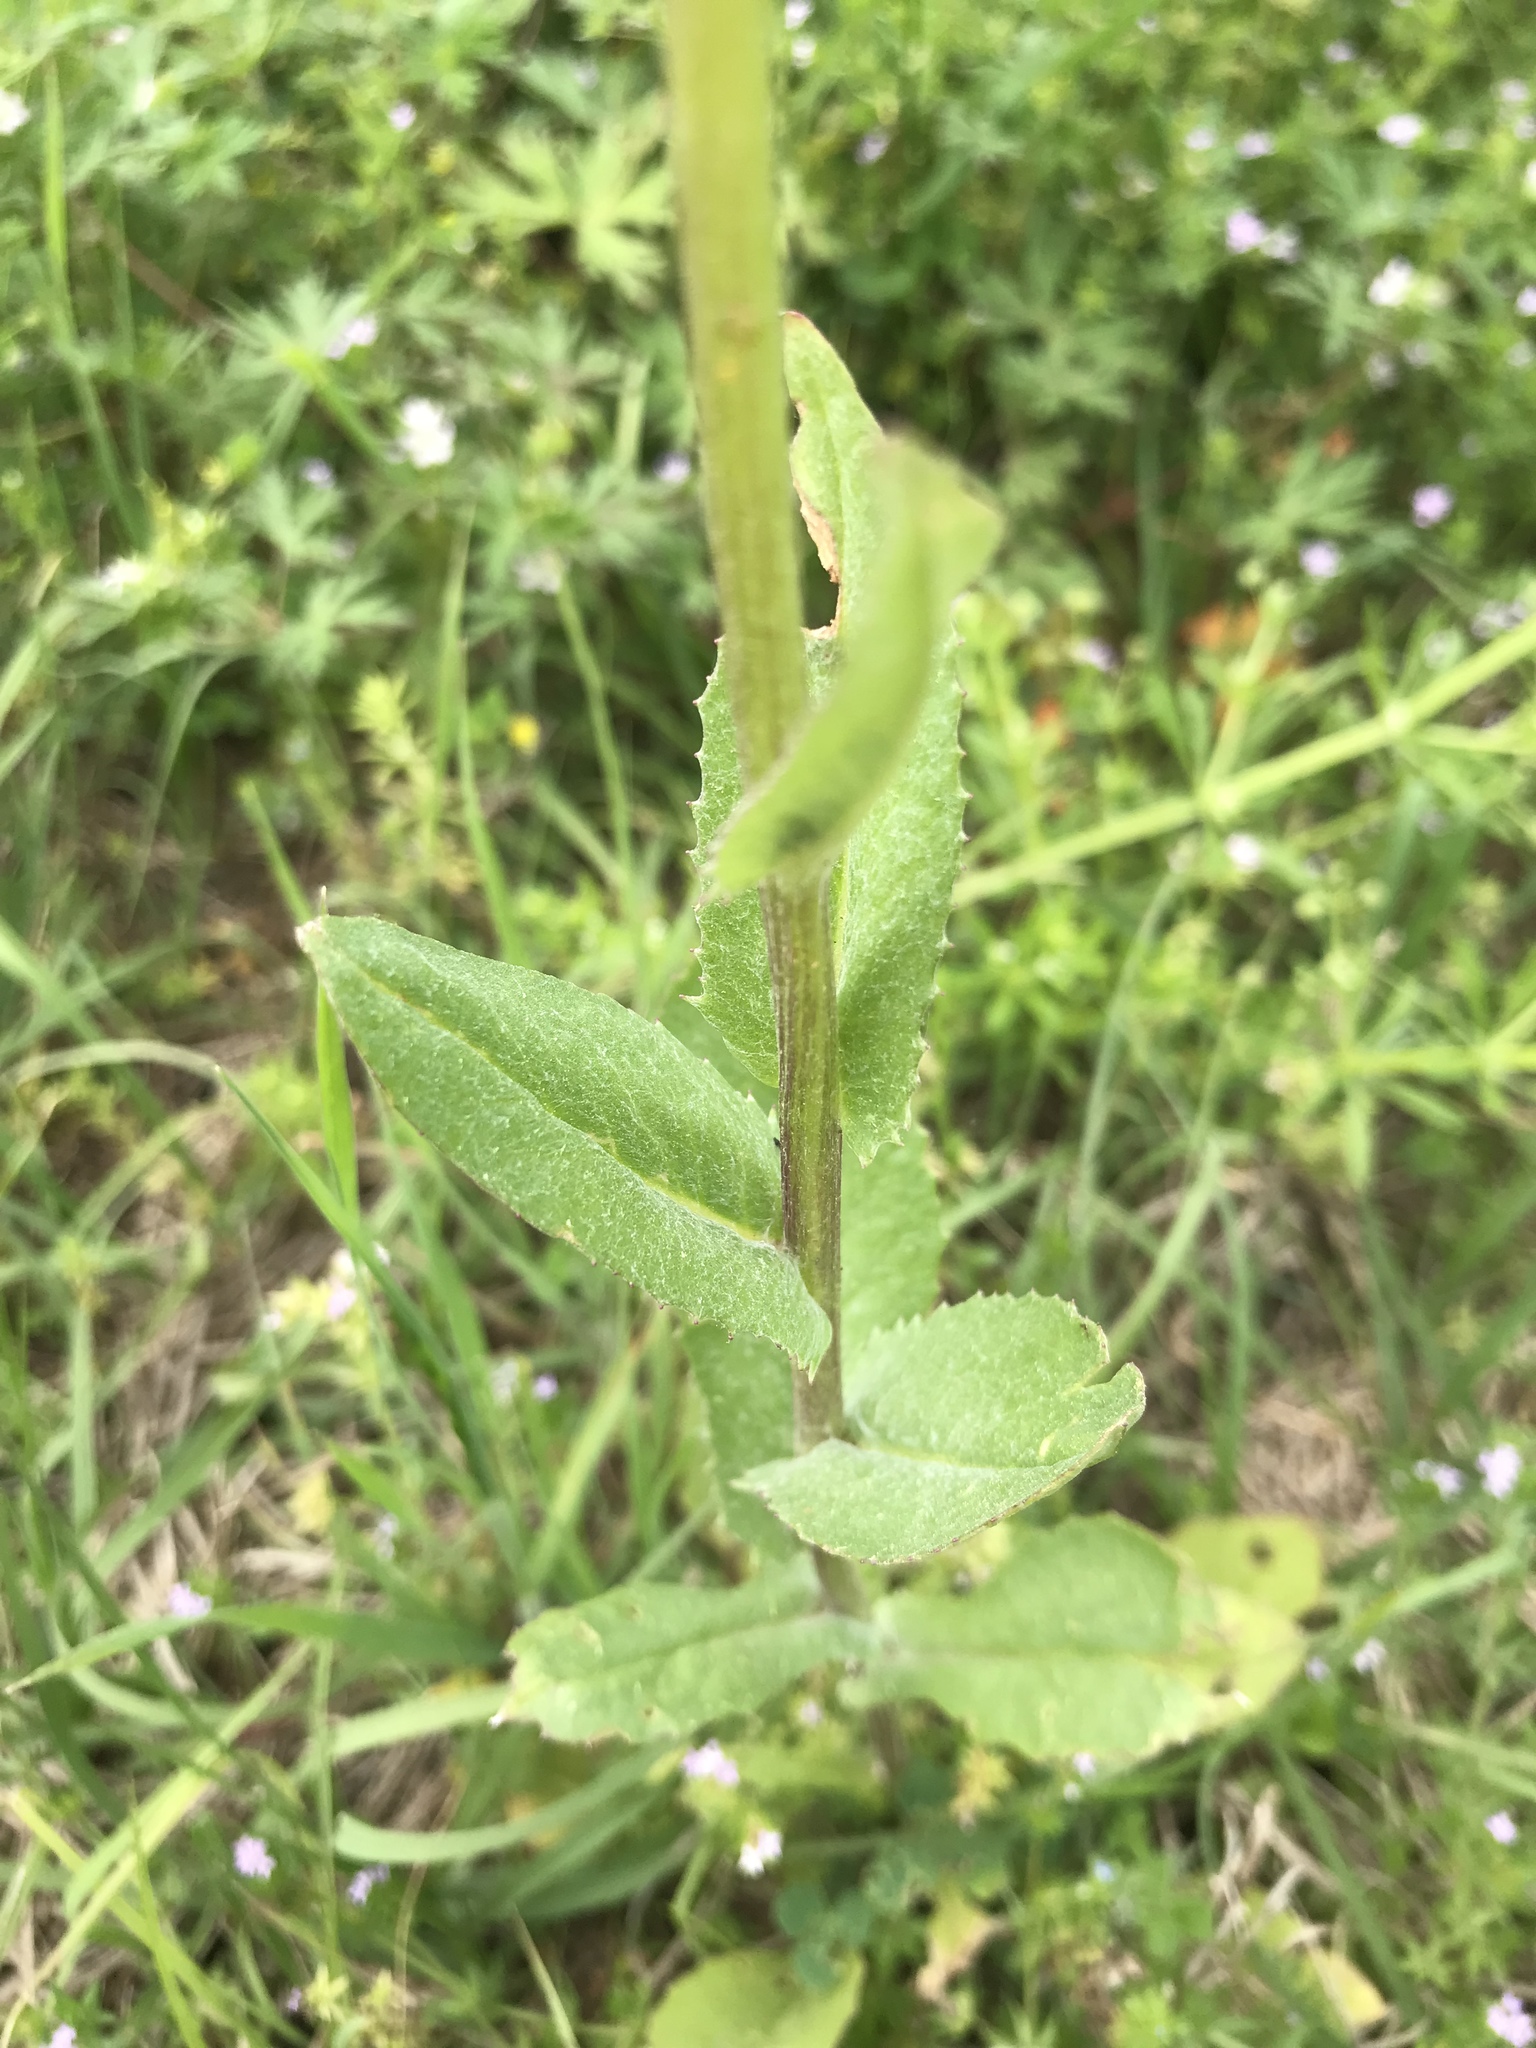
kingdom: Plantae
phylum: Tracheophyta
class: Magnoliopsida
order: Asterales
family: Asteraceae
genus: Senecio
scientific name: Senecio ampullaceus
